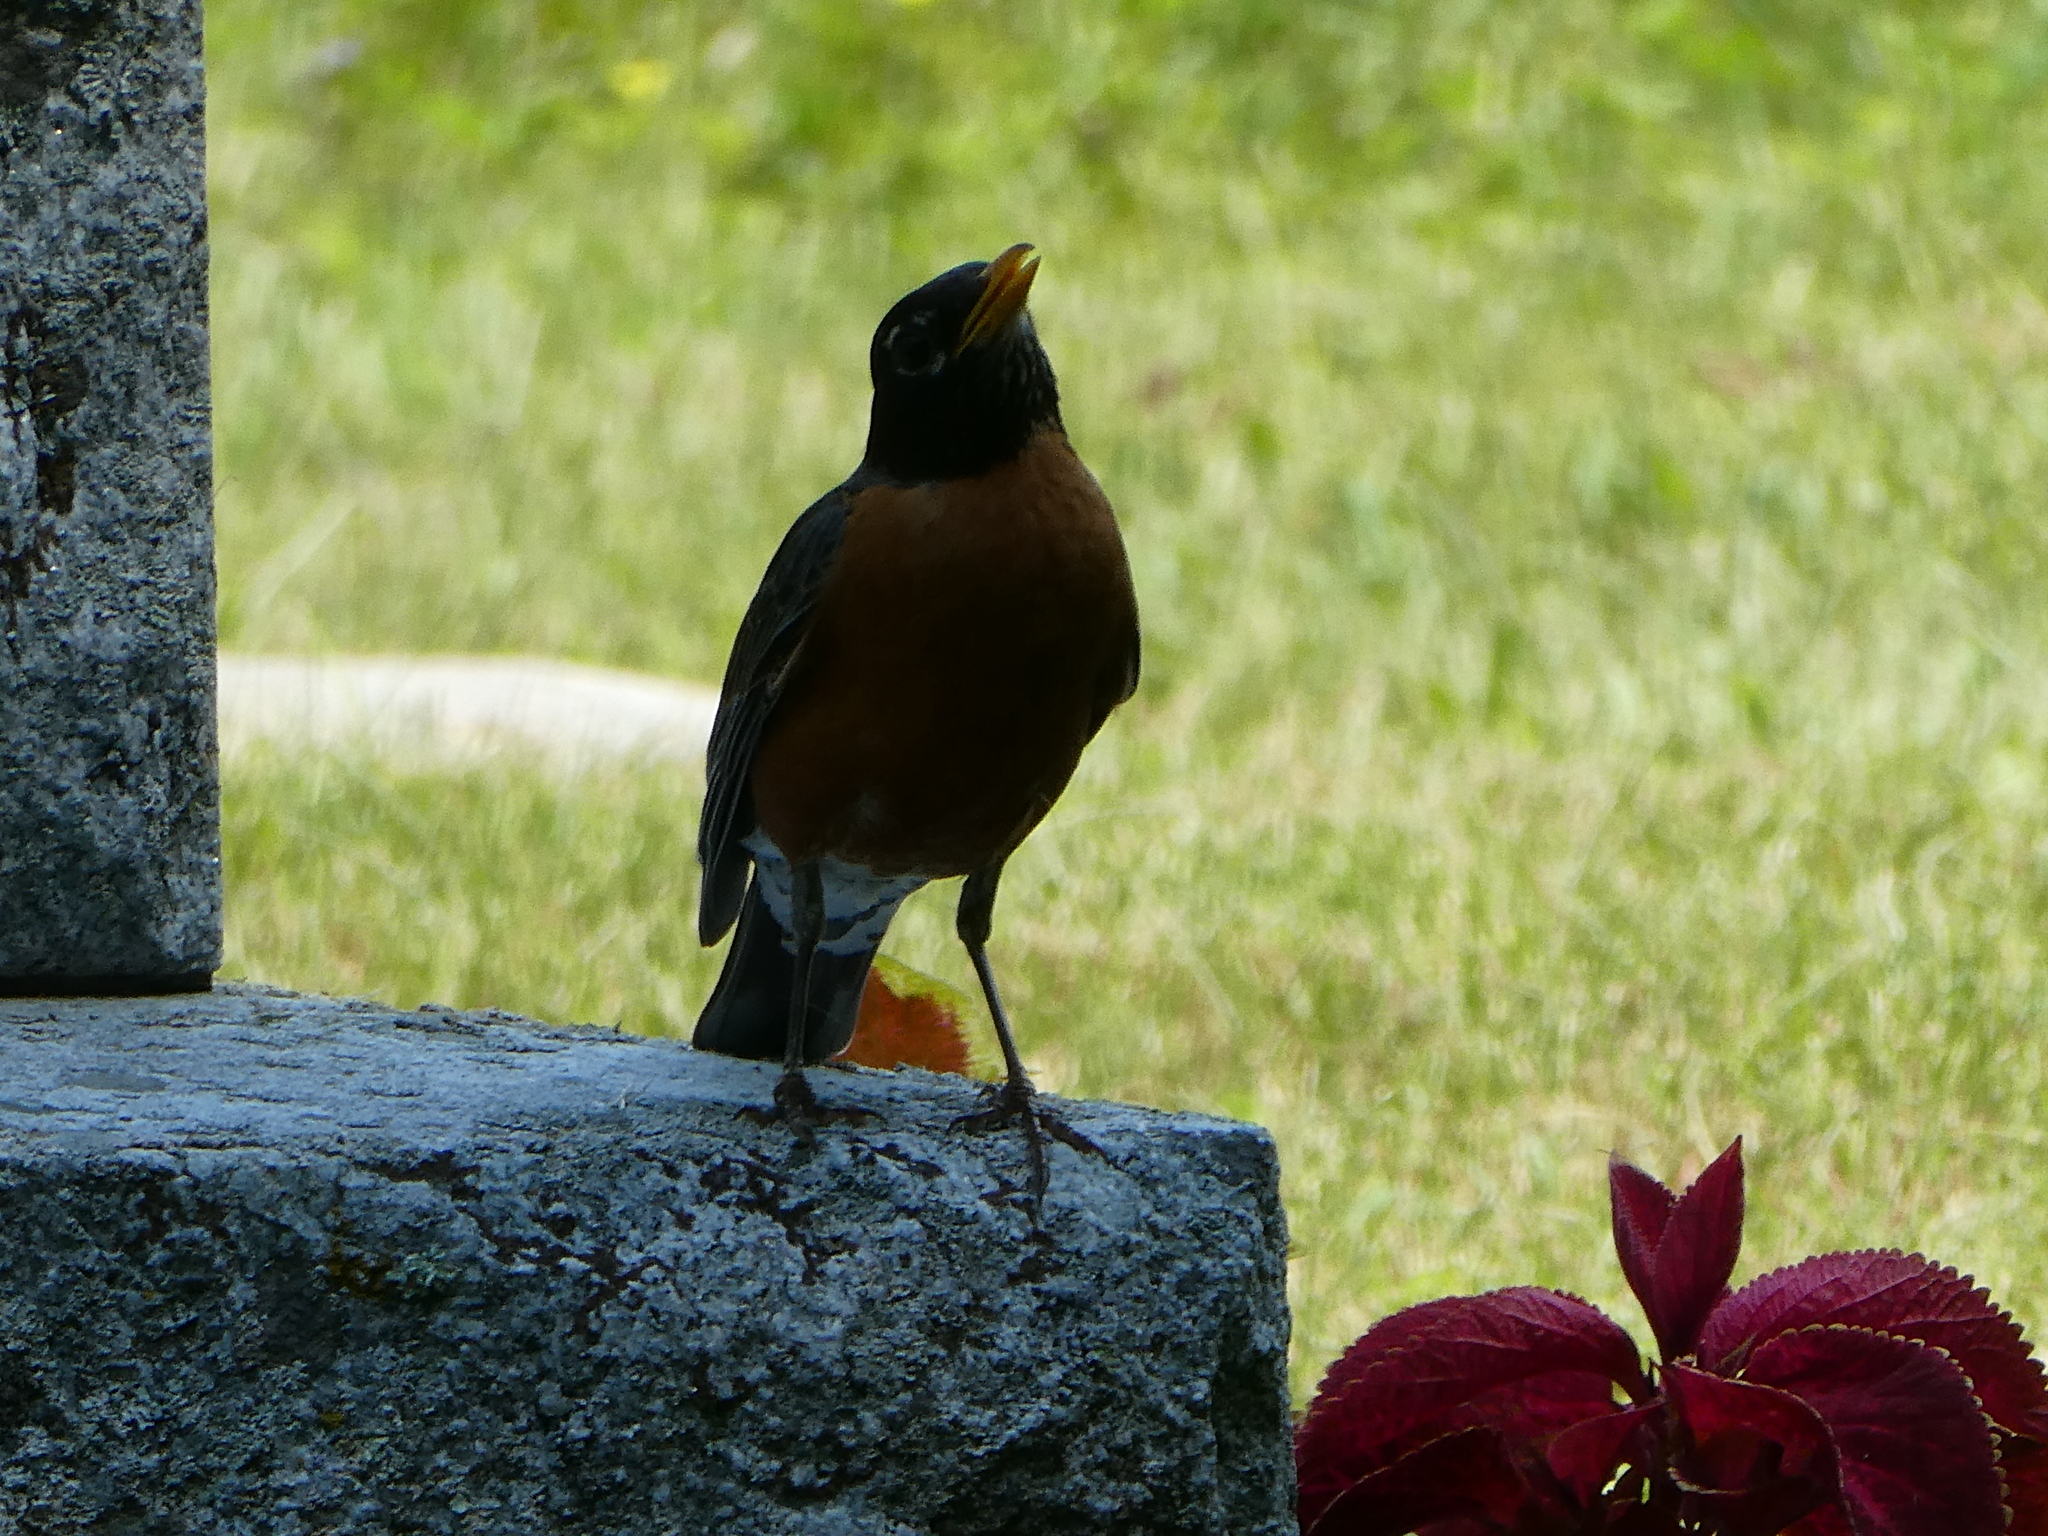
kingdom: Animalia
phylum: Chordata
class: Aves
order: Passeriformes
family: Turdidae
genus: Turdus
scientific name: Turdus migratorius
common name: American robin
